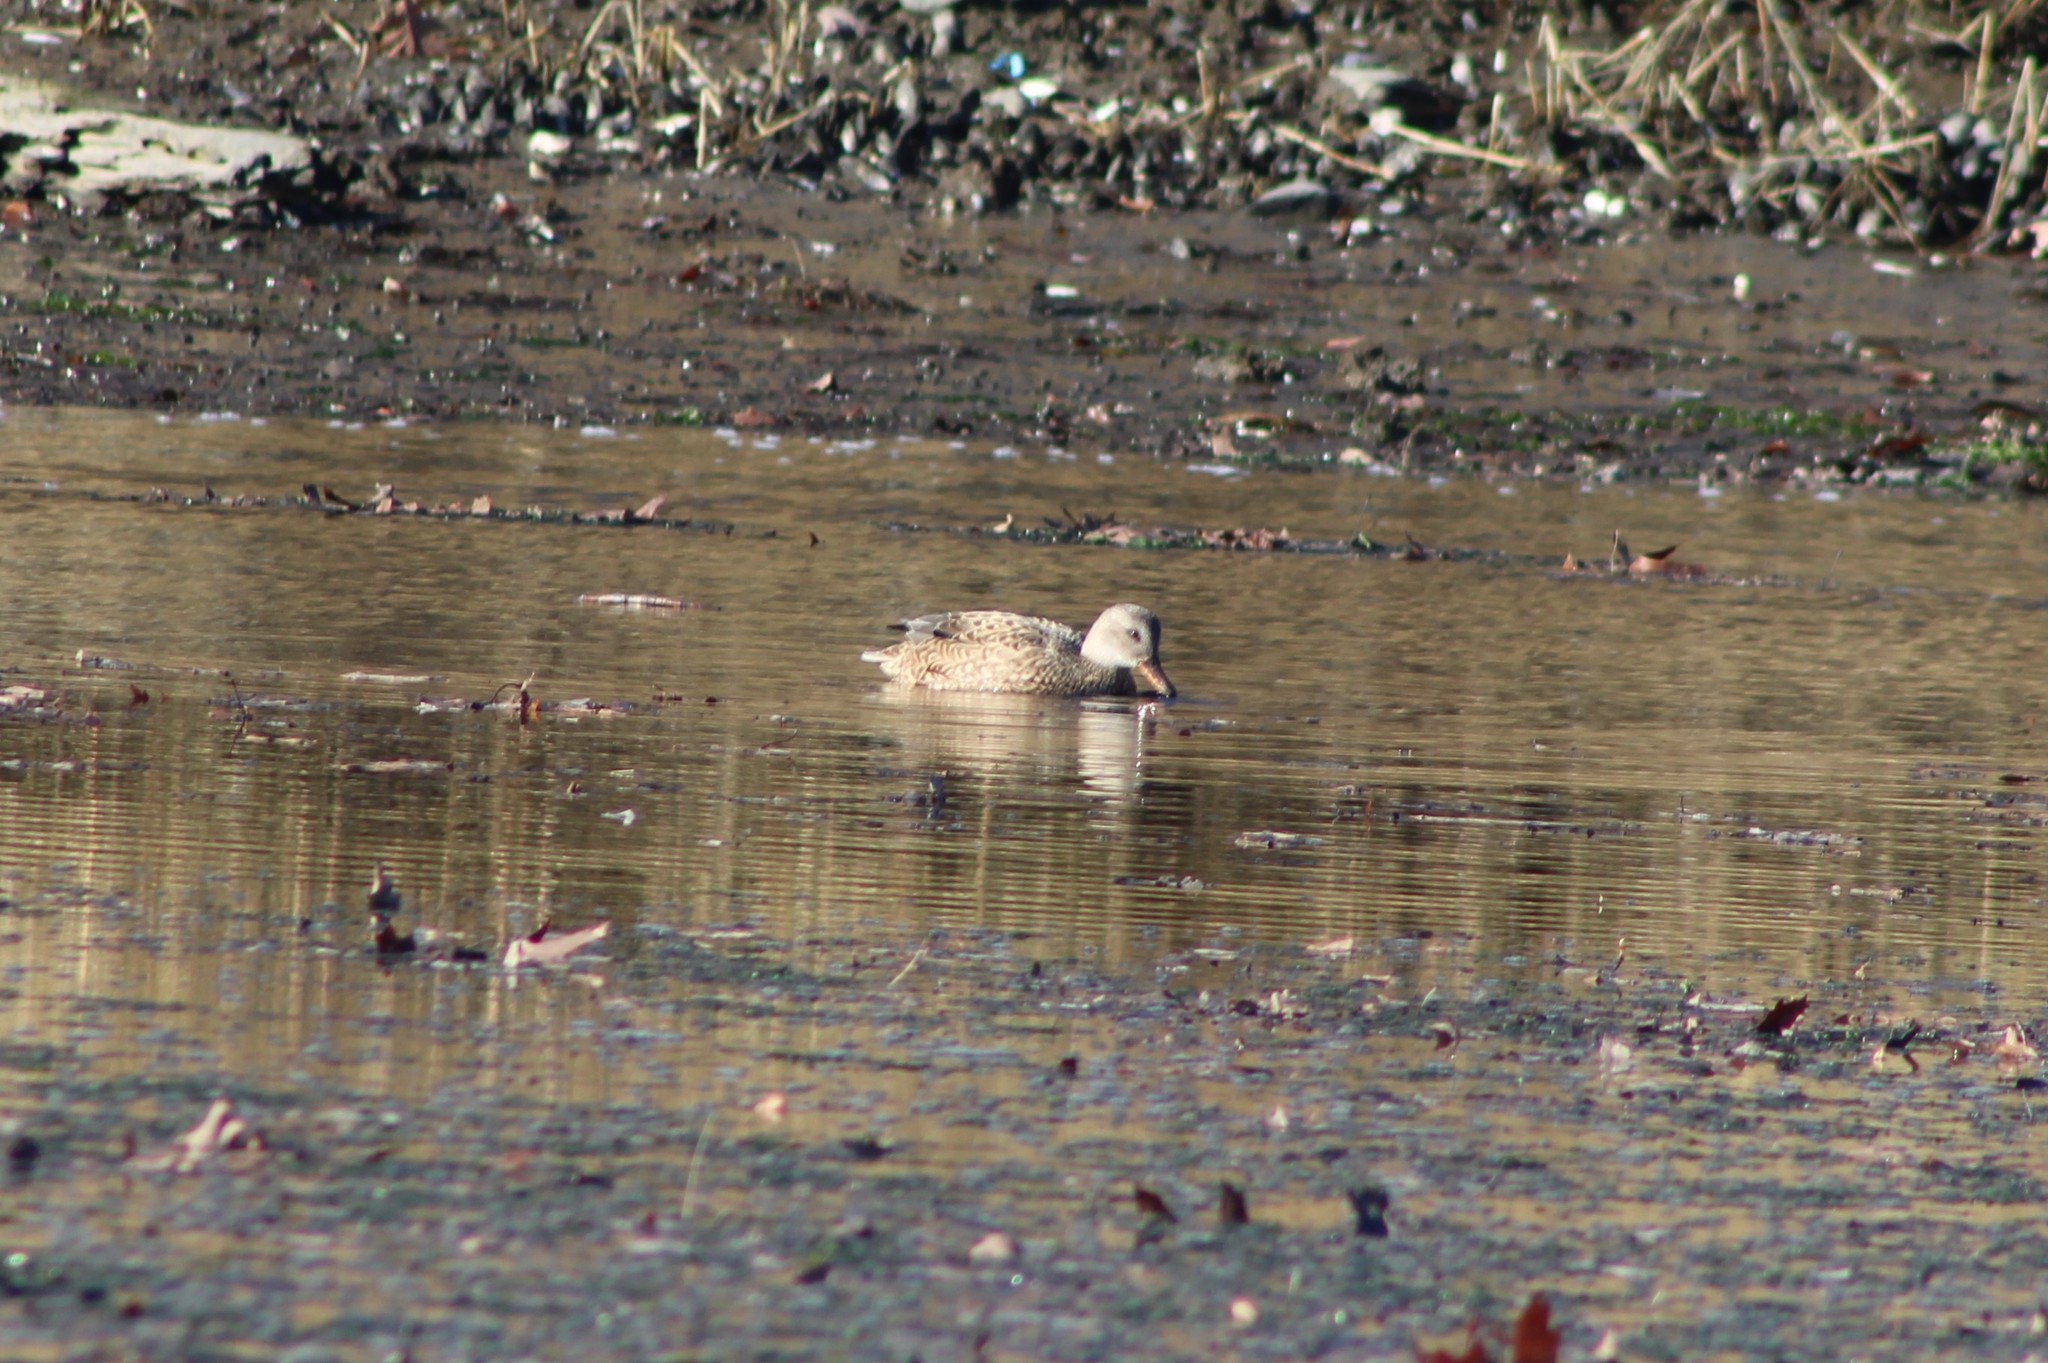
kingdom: Animalia
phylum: Chordata
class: Aves
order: Anseriformes
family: Anatidae
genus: Mareca
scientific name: Mareca strepera
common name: Gadwall
